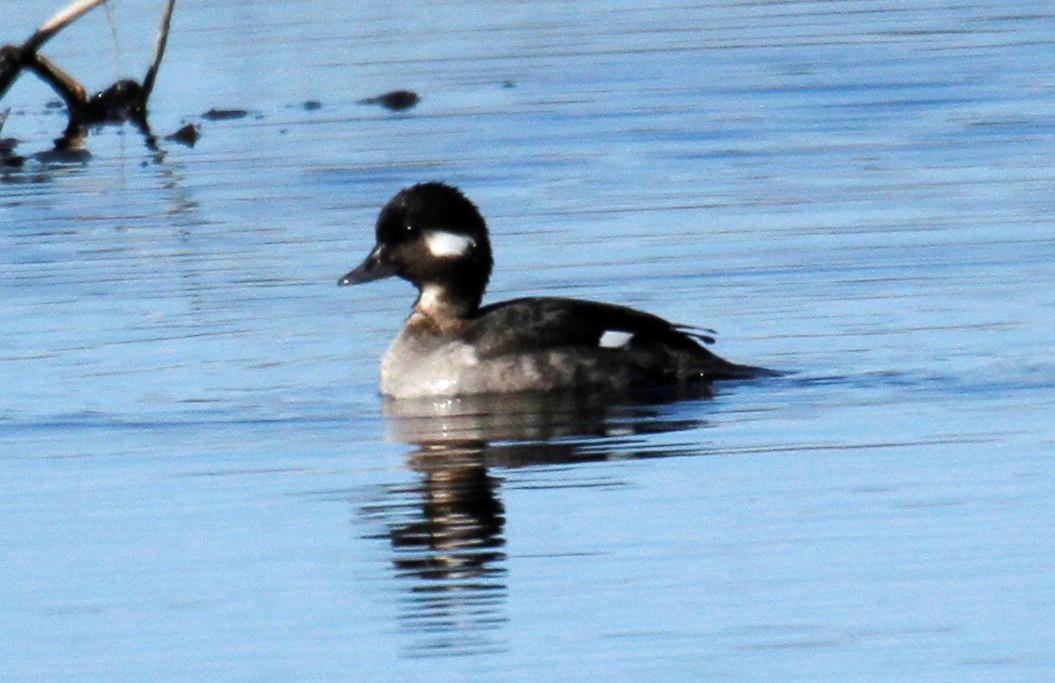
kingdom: Animalia
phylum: Chordata
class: Aves
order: Anseriformes
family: Anatidae
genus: Bucephala
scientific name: Bucephala albeola
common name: Bufflehead
